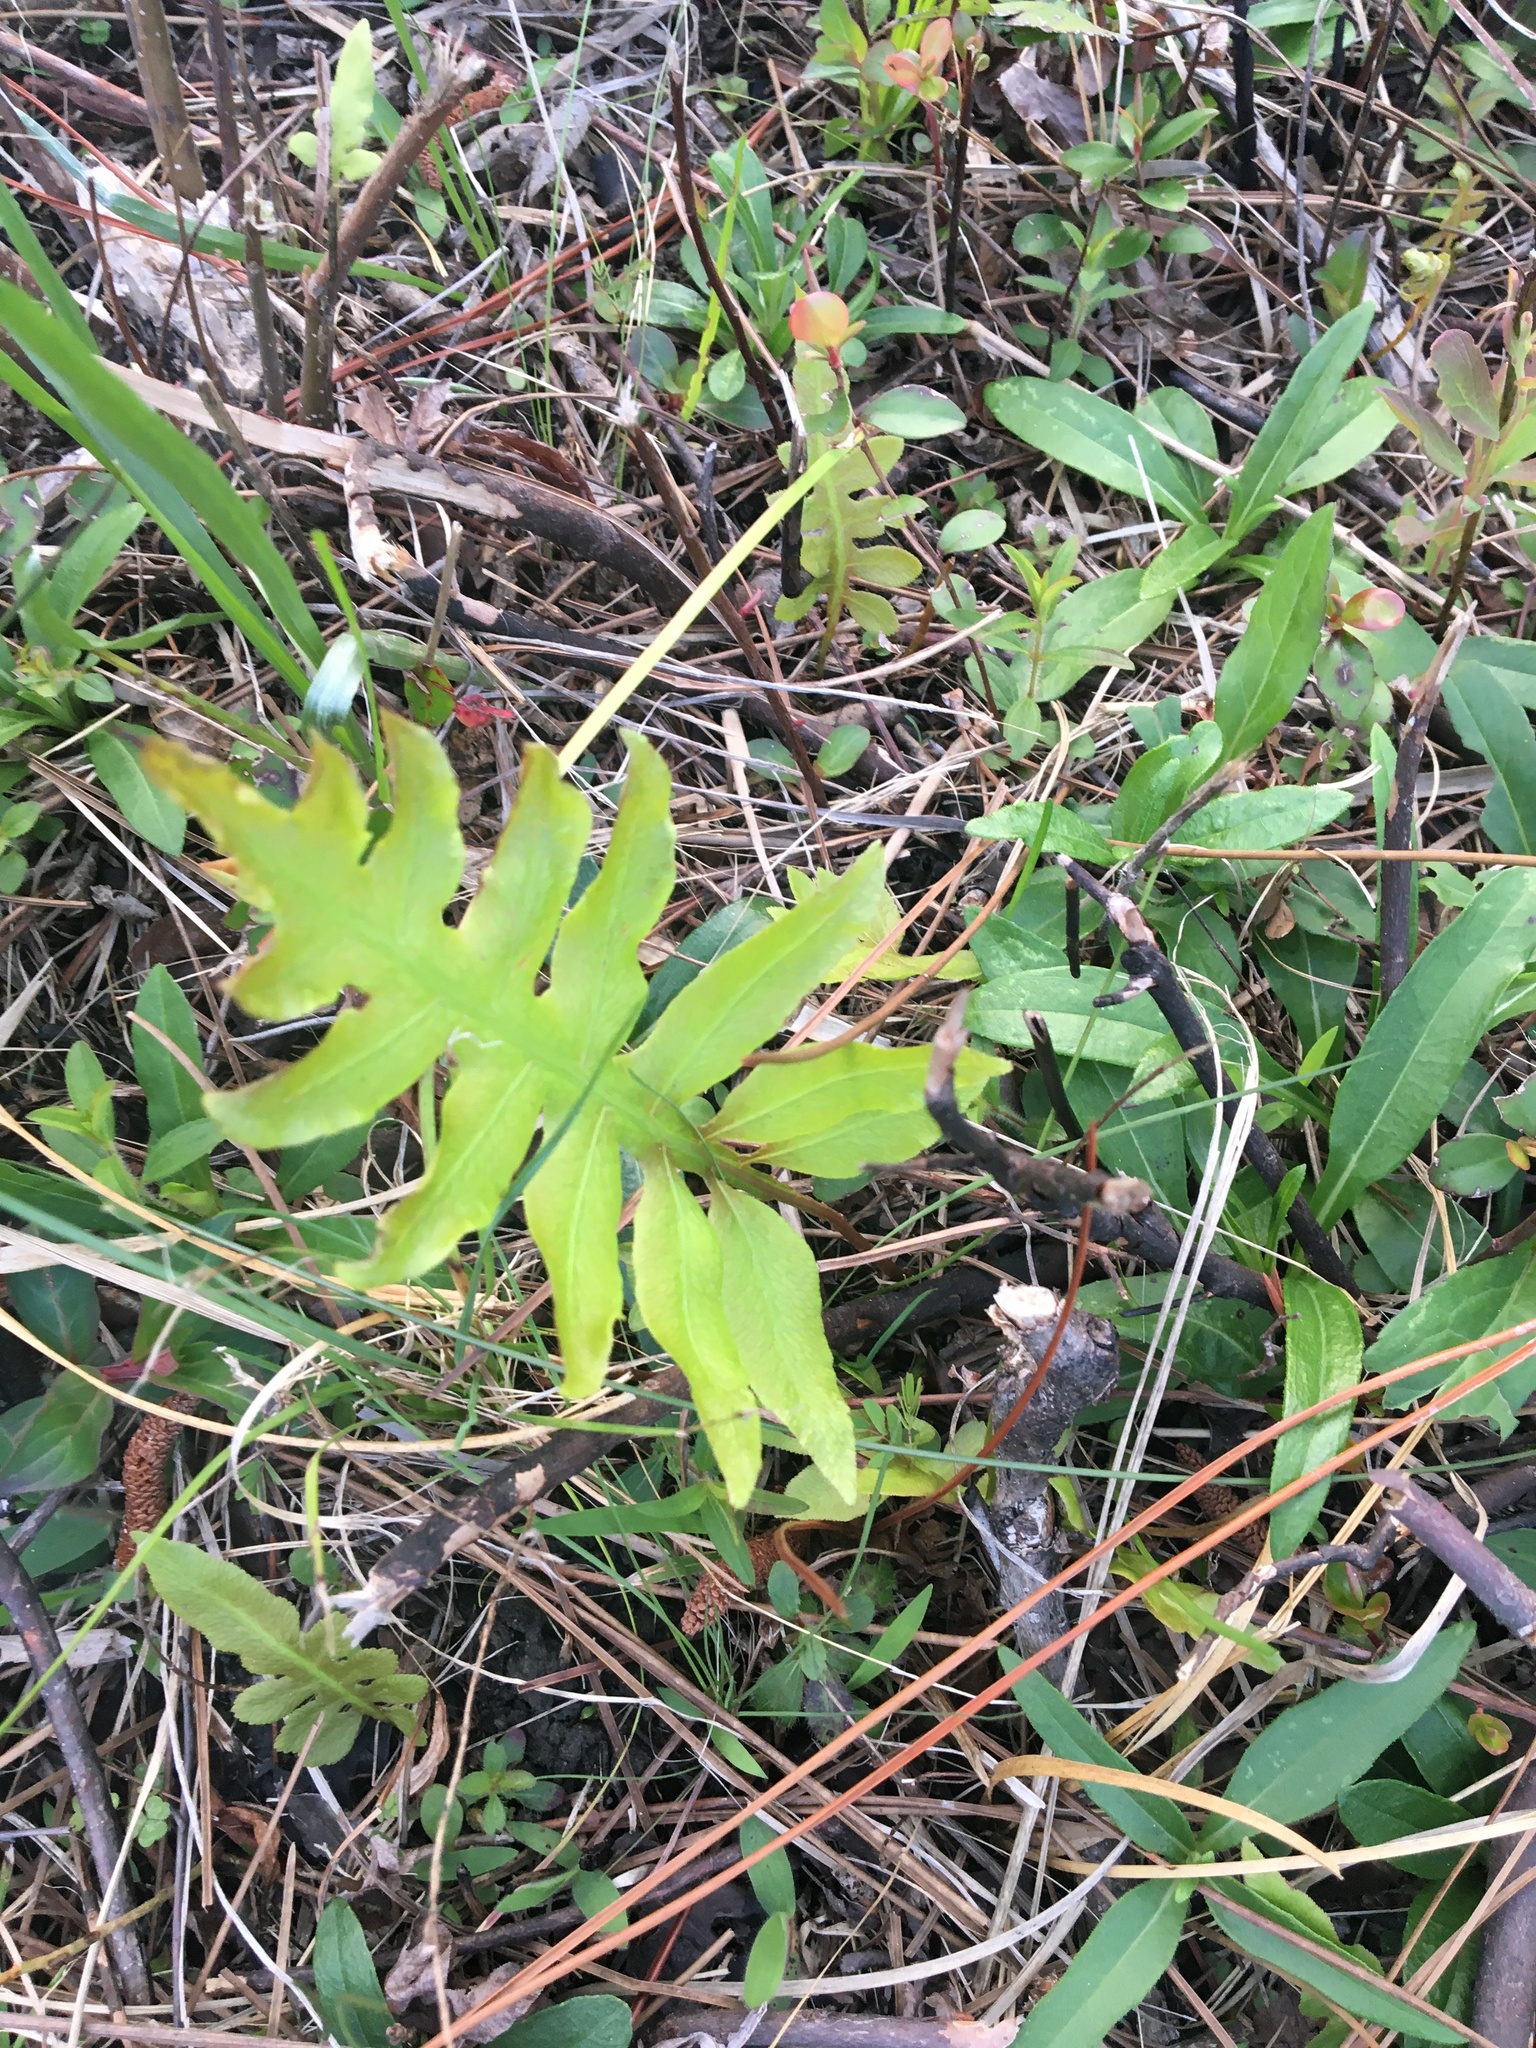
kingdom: Plantae
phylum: Tracheophyta
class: Polypodiopsida
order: Polypodiales
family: Blechnaceae
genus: Lorinseria
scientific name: Lorinseria areolata
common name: Dwarf chain fern
